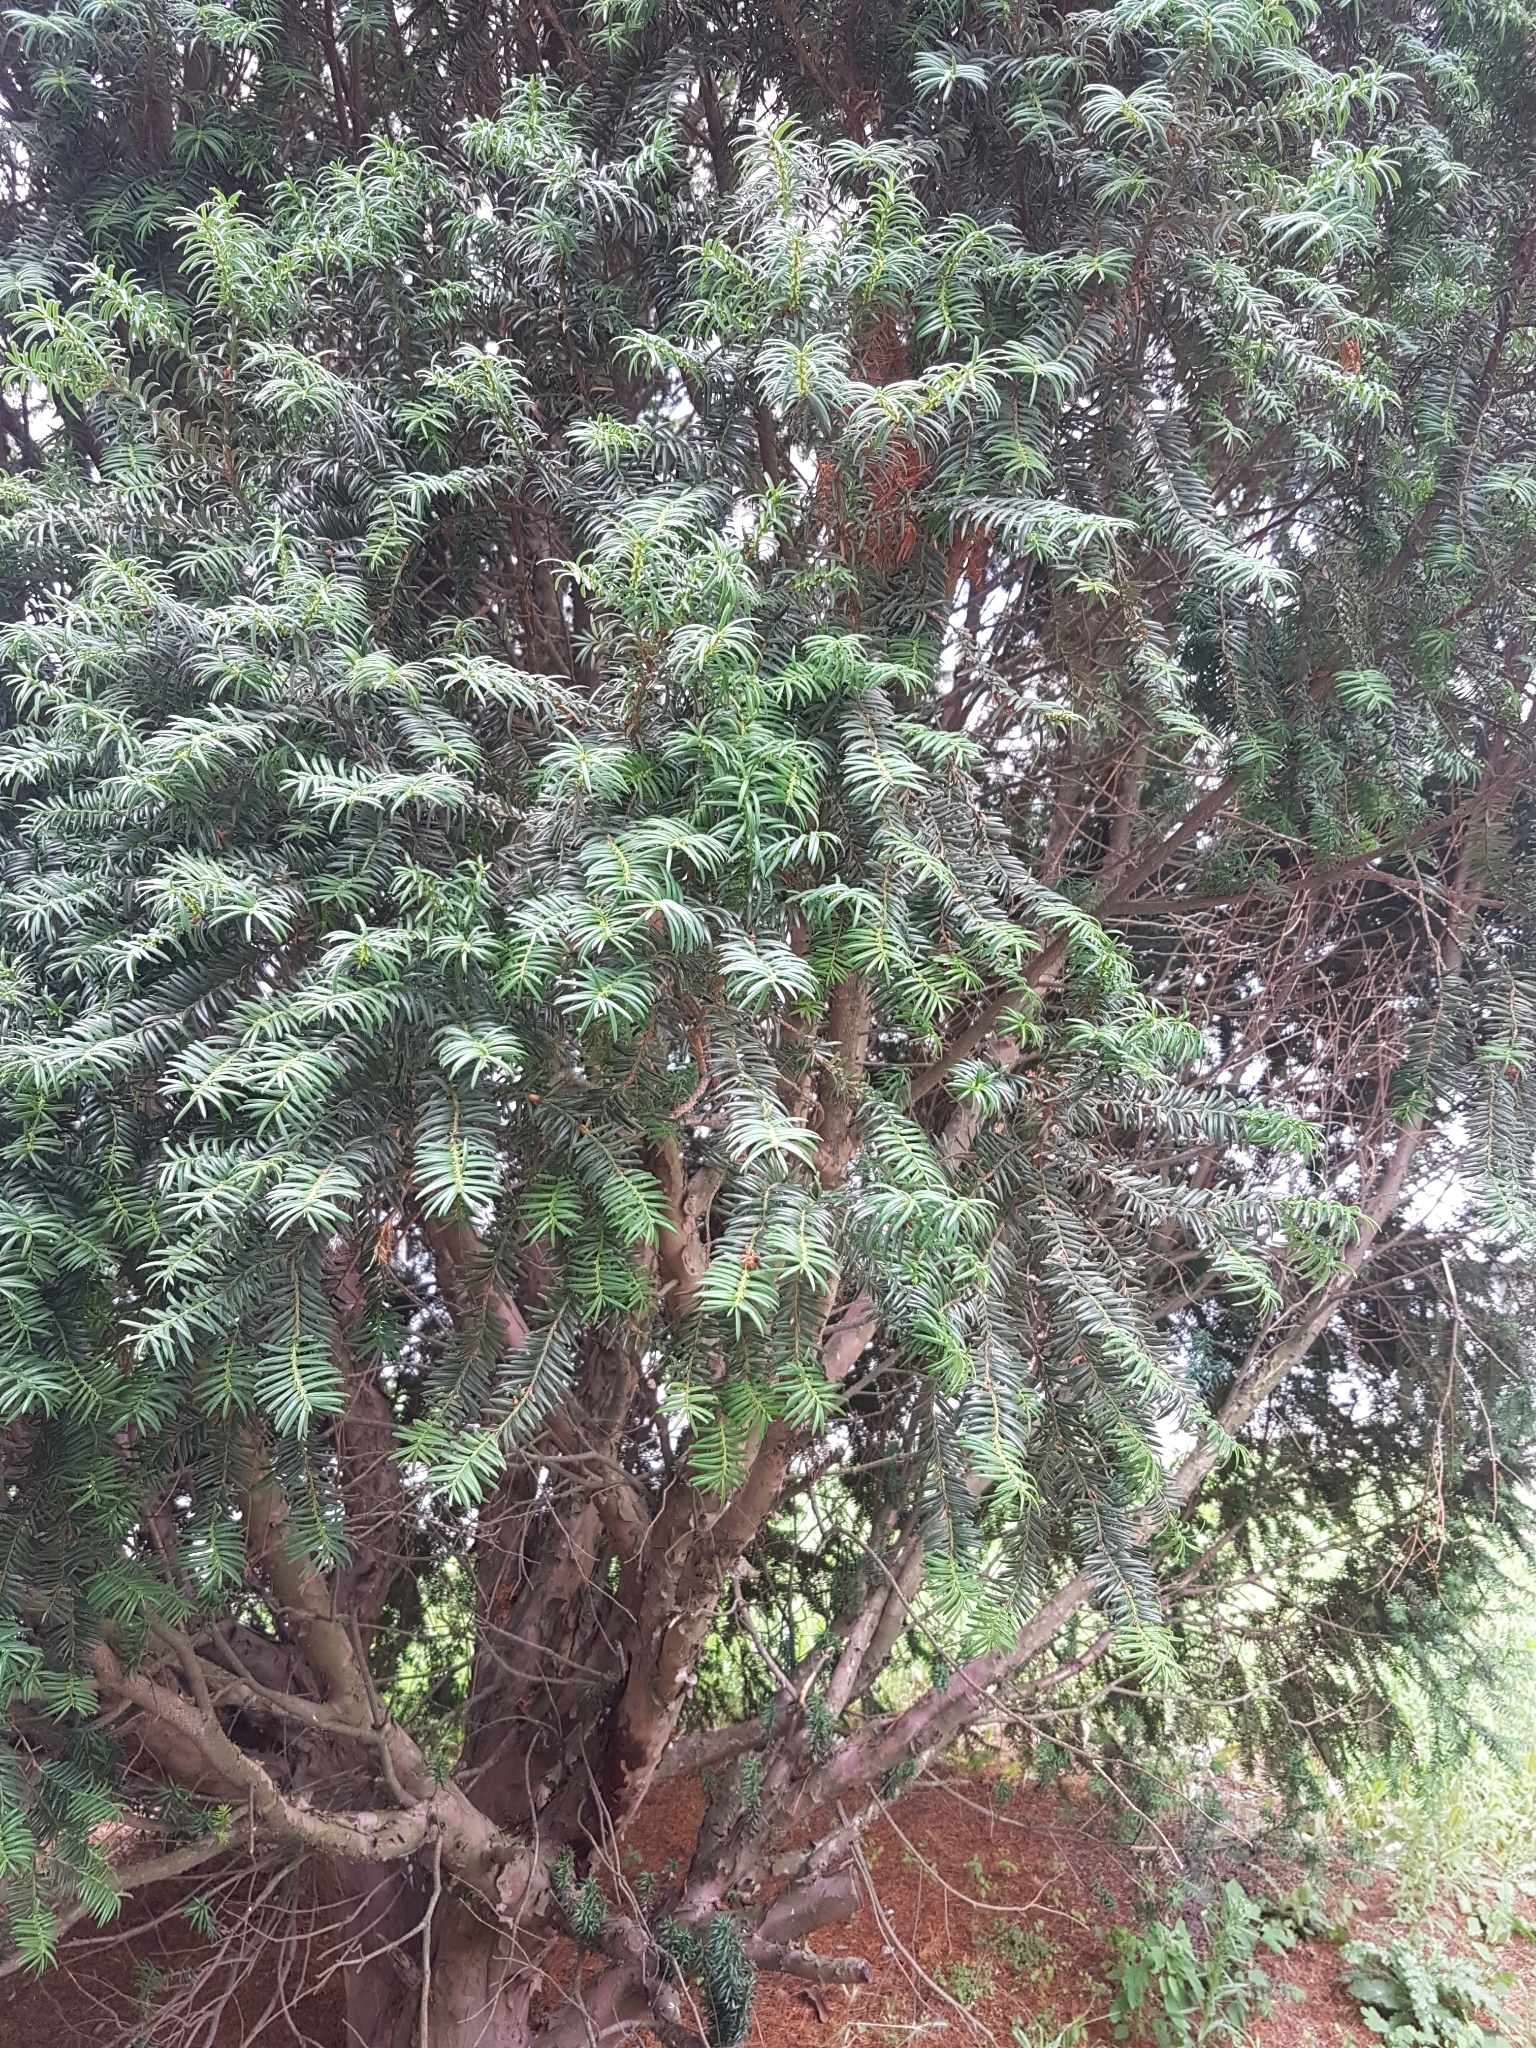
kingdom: Plantae
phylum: Tracheophyta
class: Pinopsida
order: Pinales
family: Taxaceae
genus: Taxus
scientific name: Taxus baccata
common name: Yew
